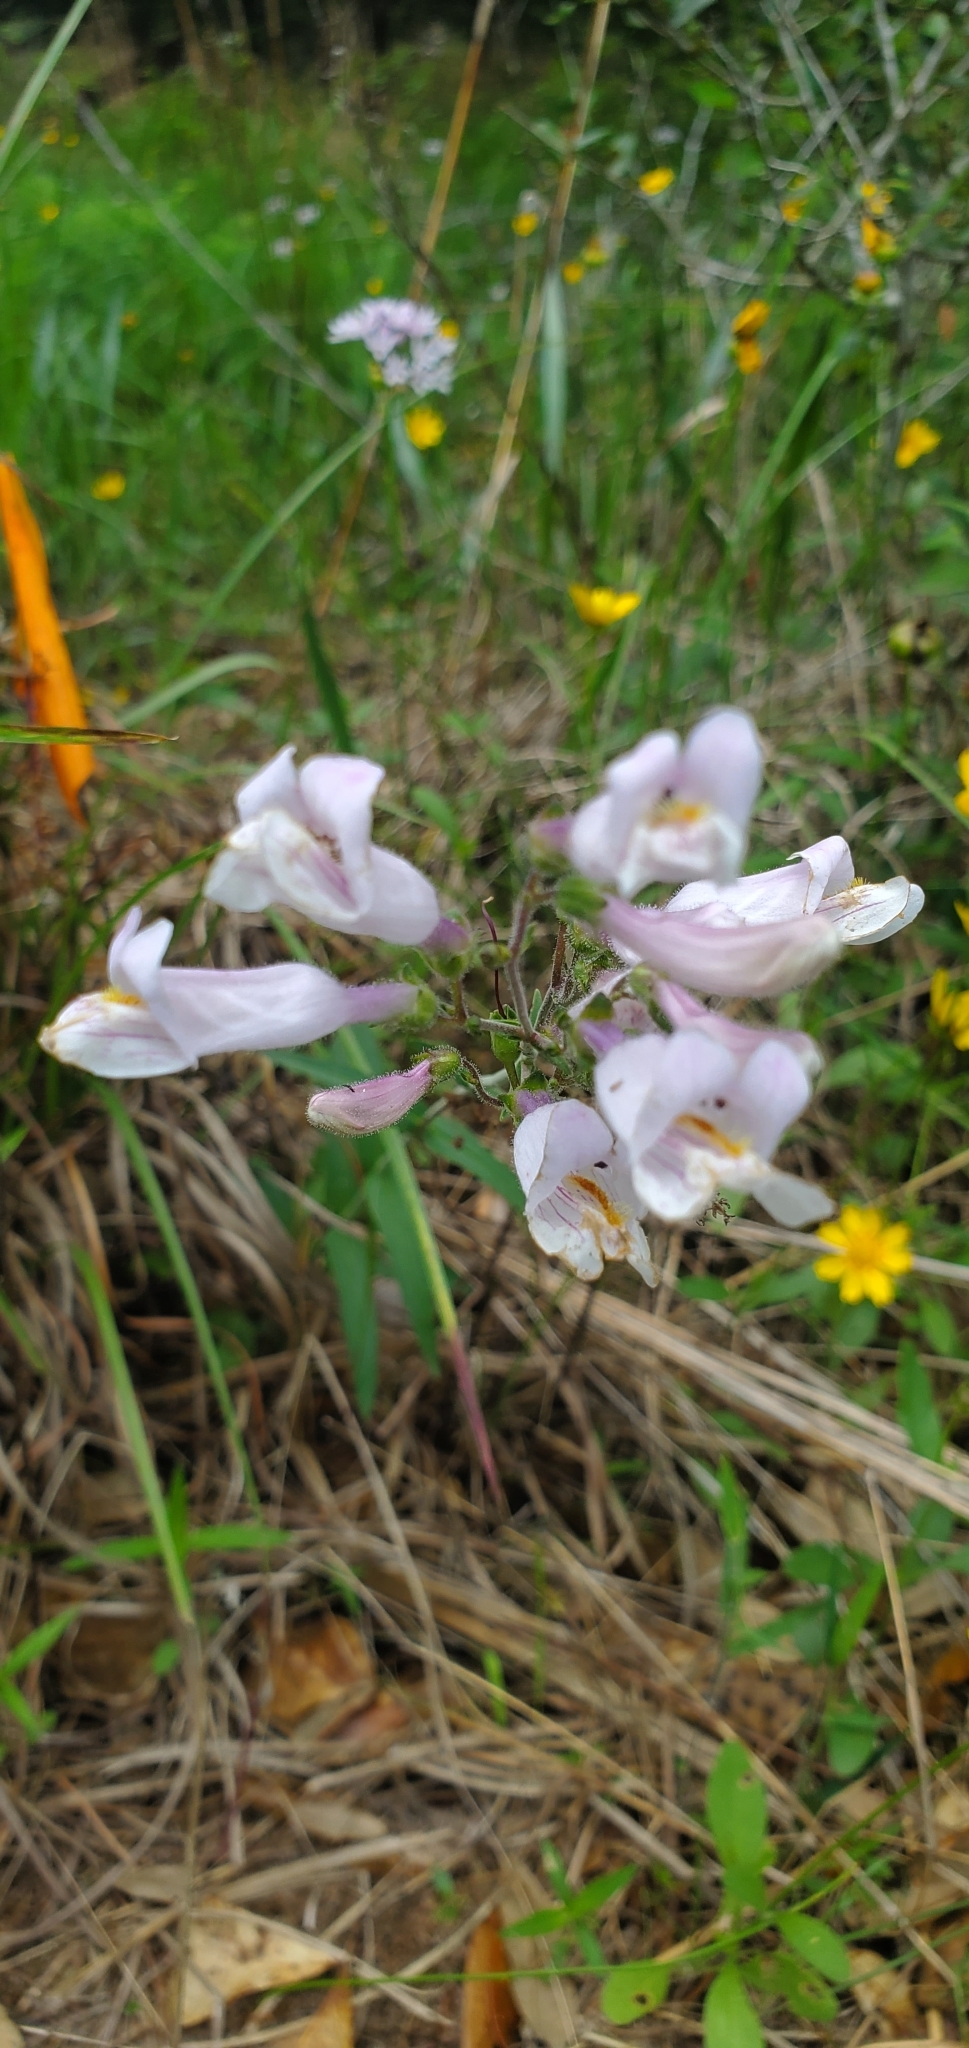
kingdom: Plantae
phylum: Tracheophyta
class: Magnoliopsida
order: Lamiales
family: Plantaginaceae
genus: Penstemon
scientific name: Penstemon laxiflorus
